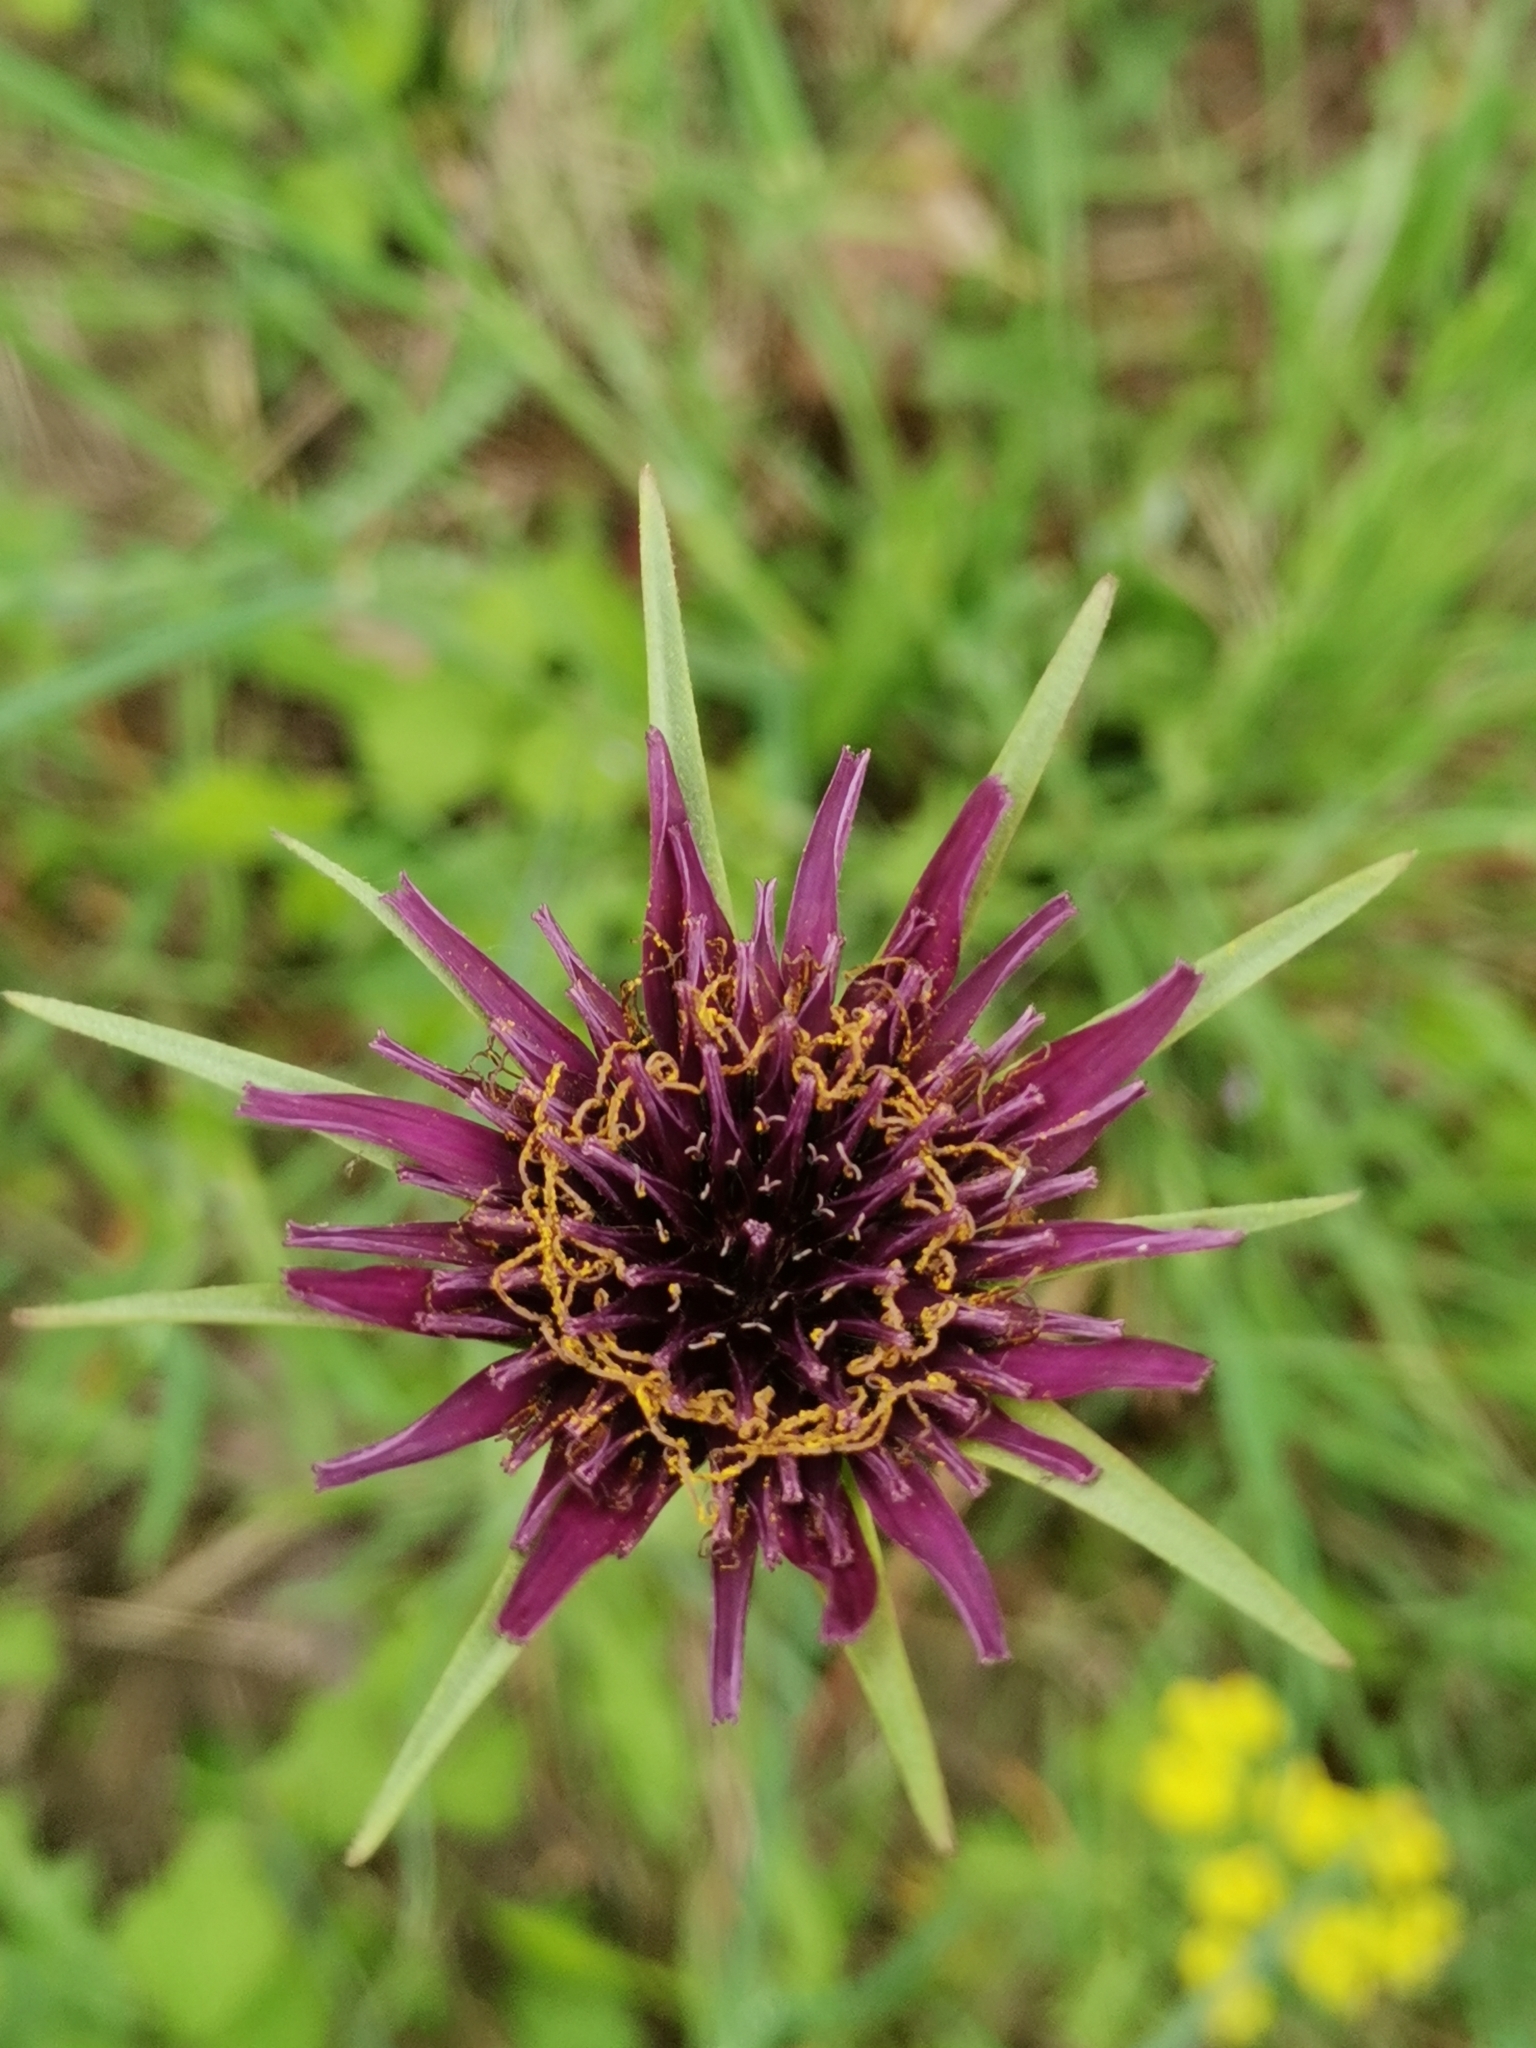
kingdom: Plantae
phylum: Tracheophyta
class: Magnoliopsida
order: Asterales
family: Asteraceae
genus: Tragopogon
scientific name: Tragopogon porrifolius
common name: Salsify
